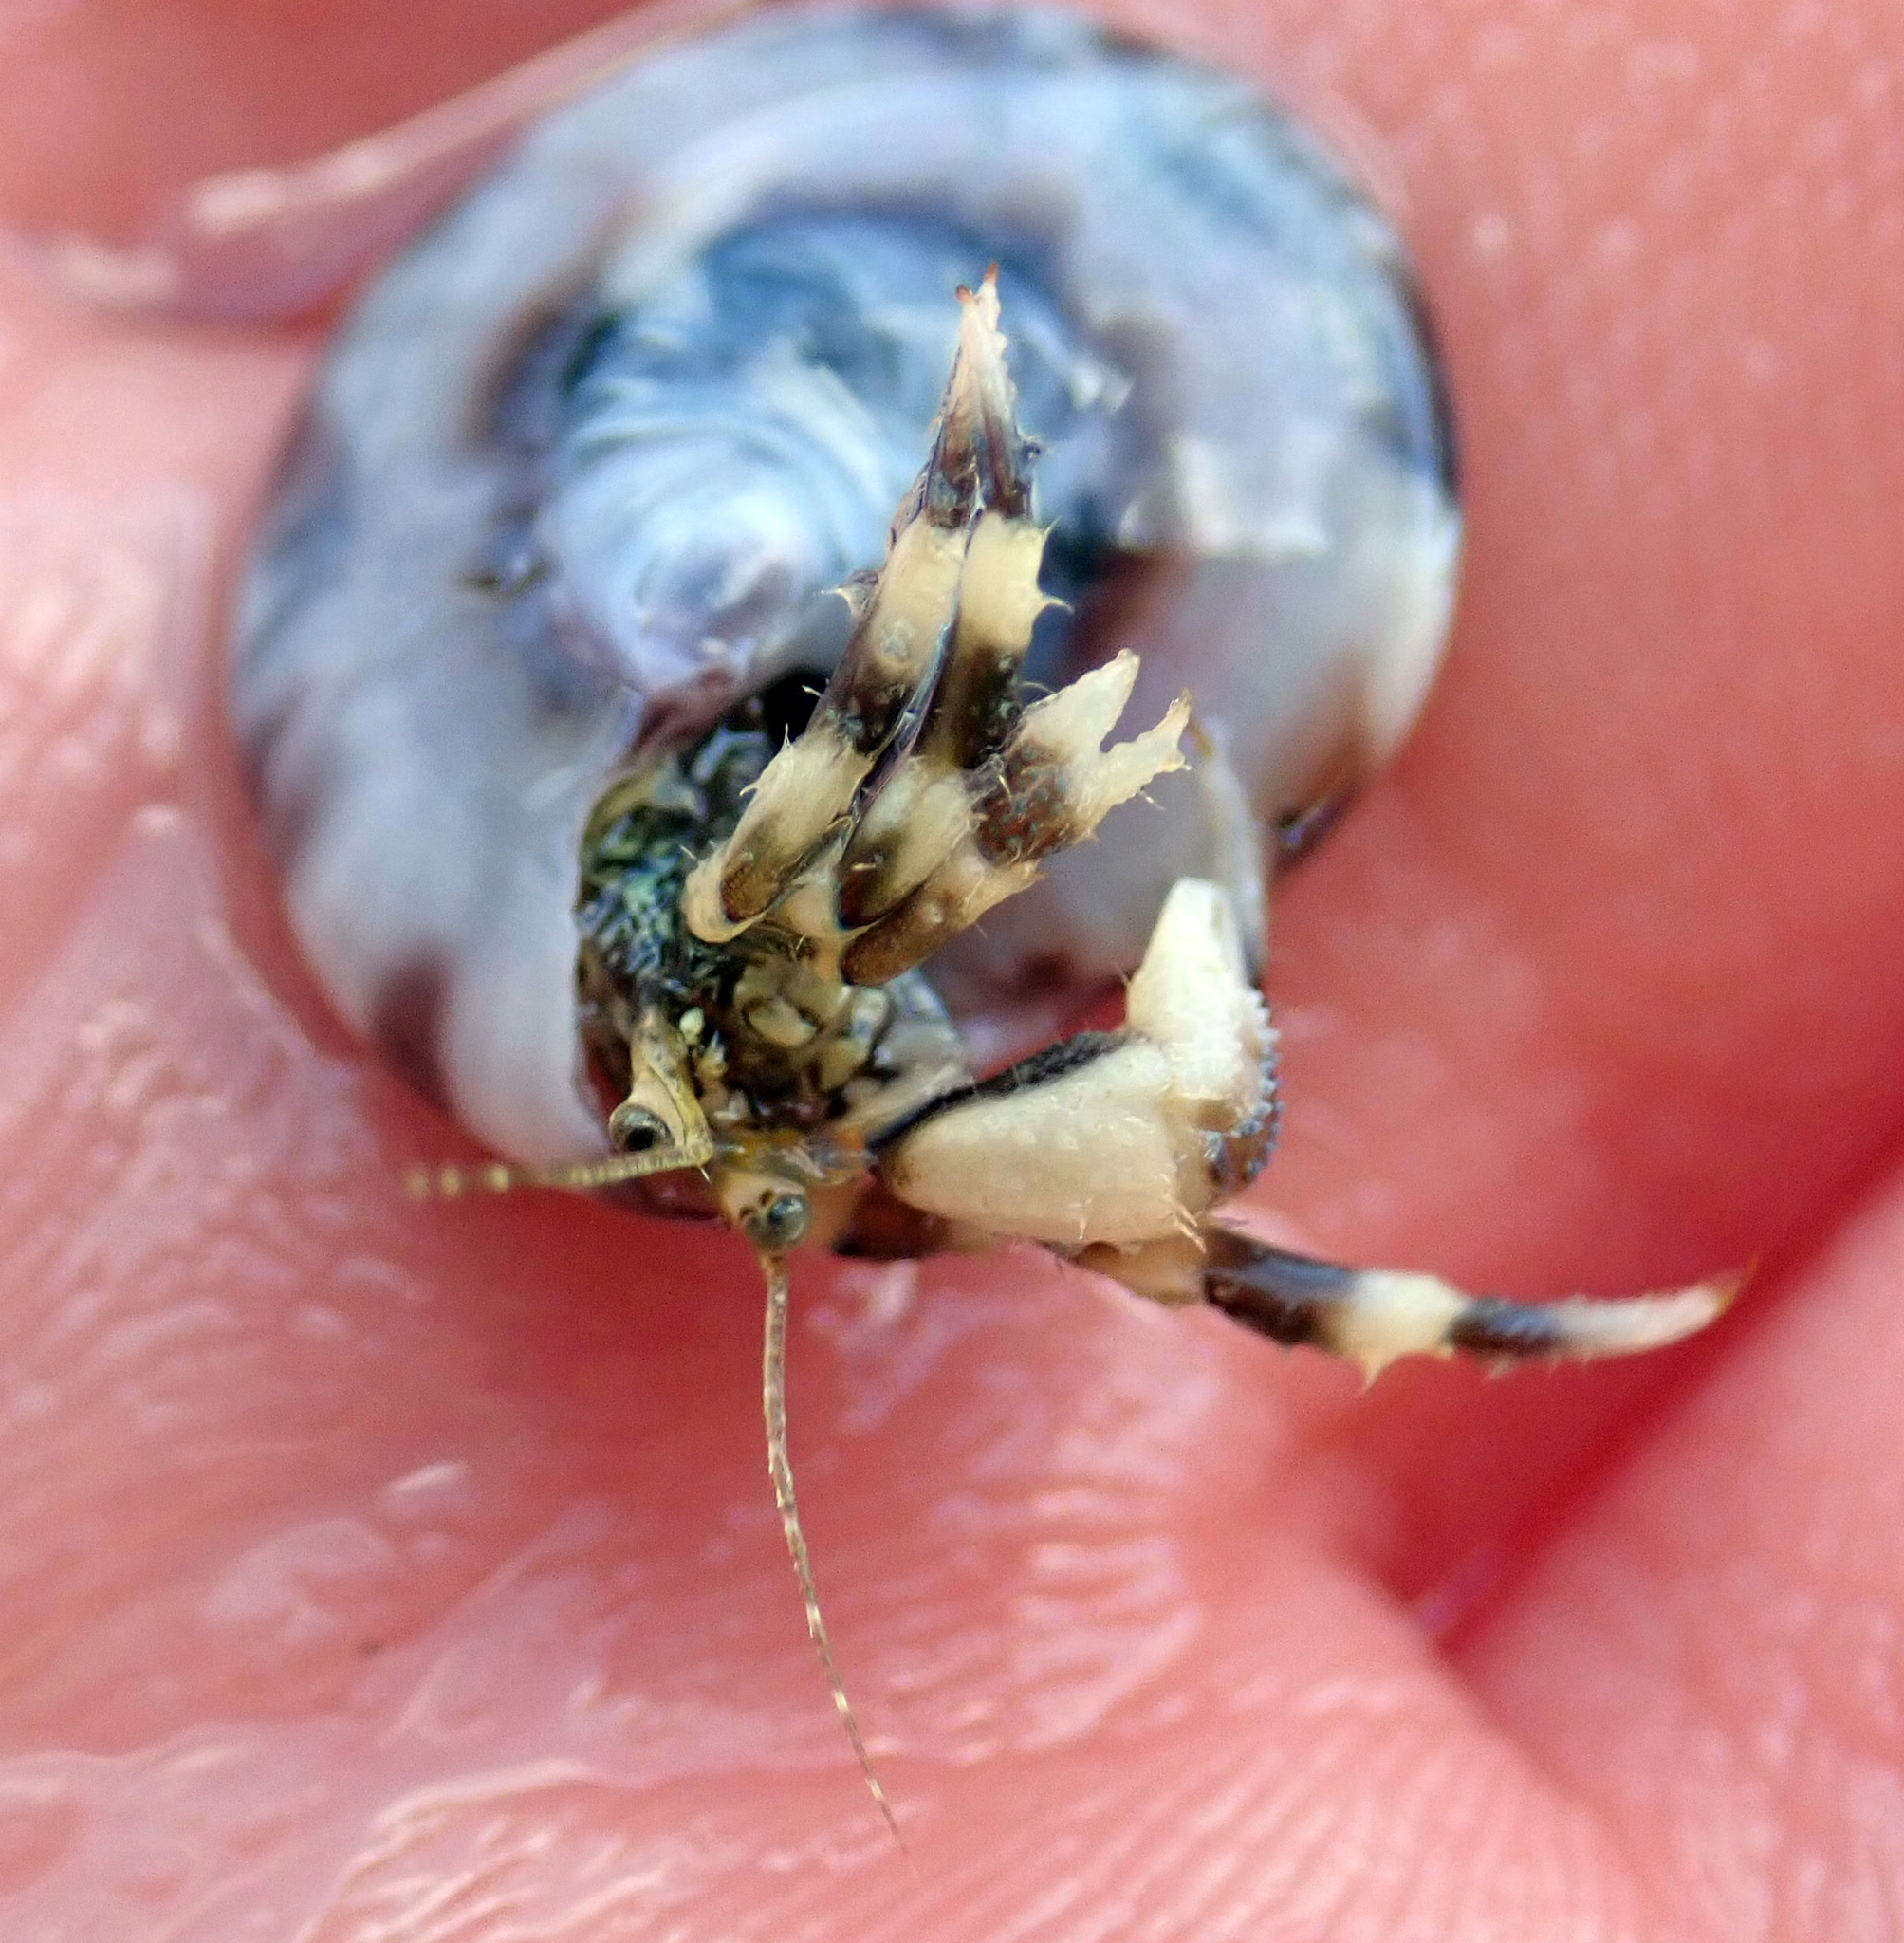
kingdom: Animalia
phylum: Arthropoda
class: Malacostraca
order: Decapoda
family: Paguridae
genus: Pagurus
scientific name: Pagurus novizealandiae
